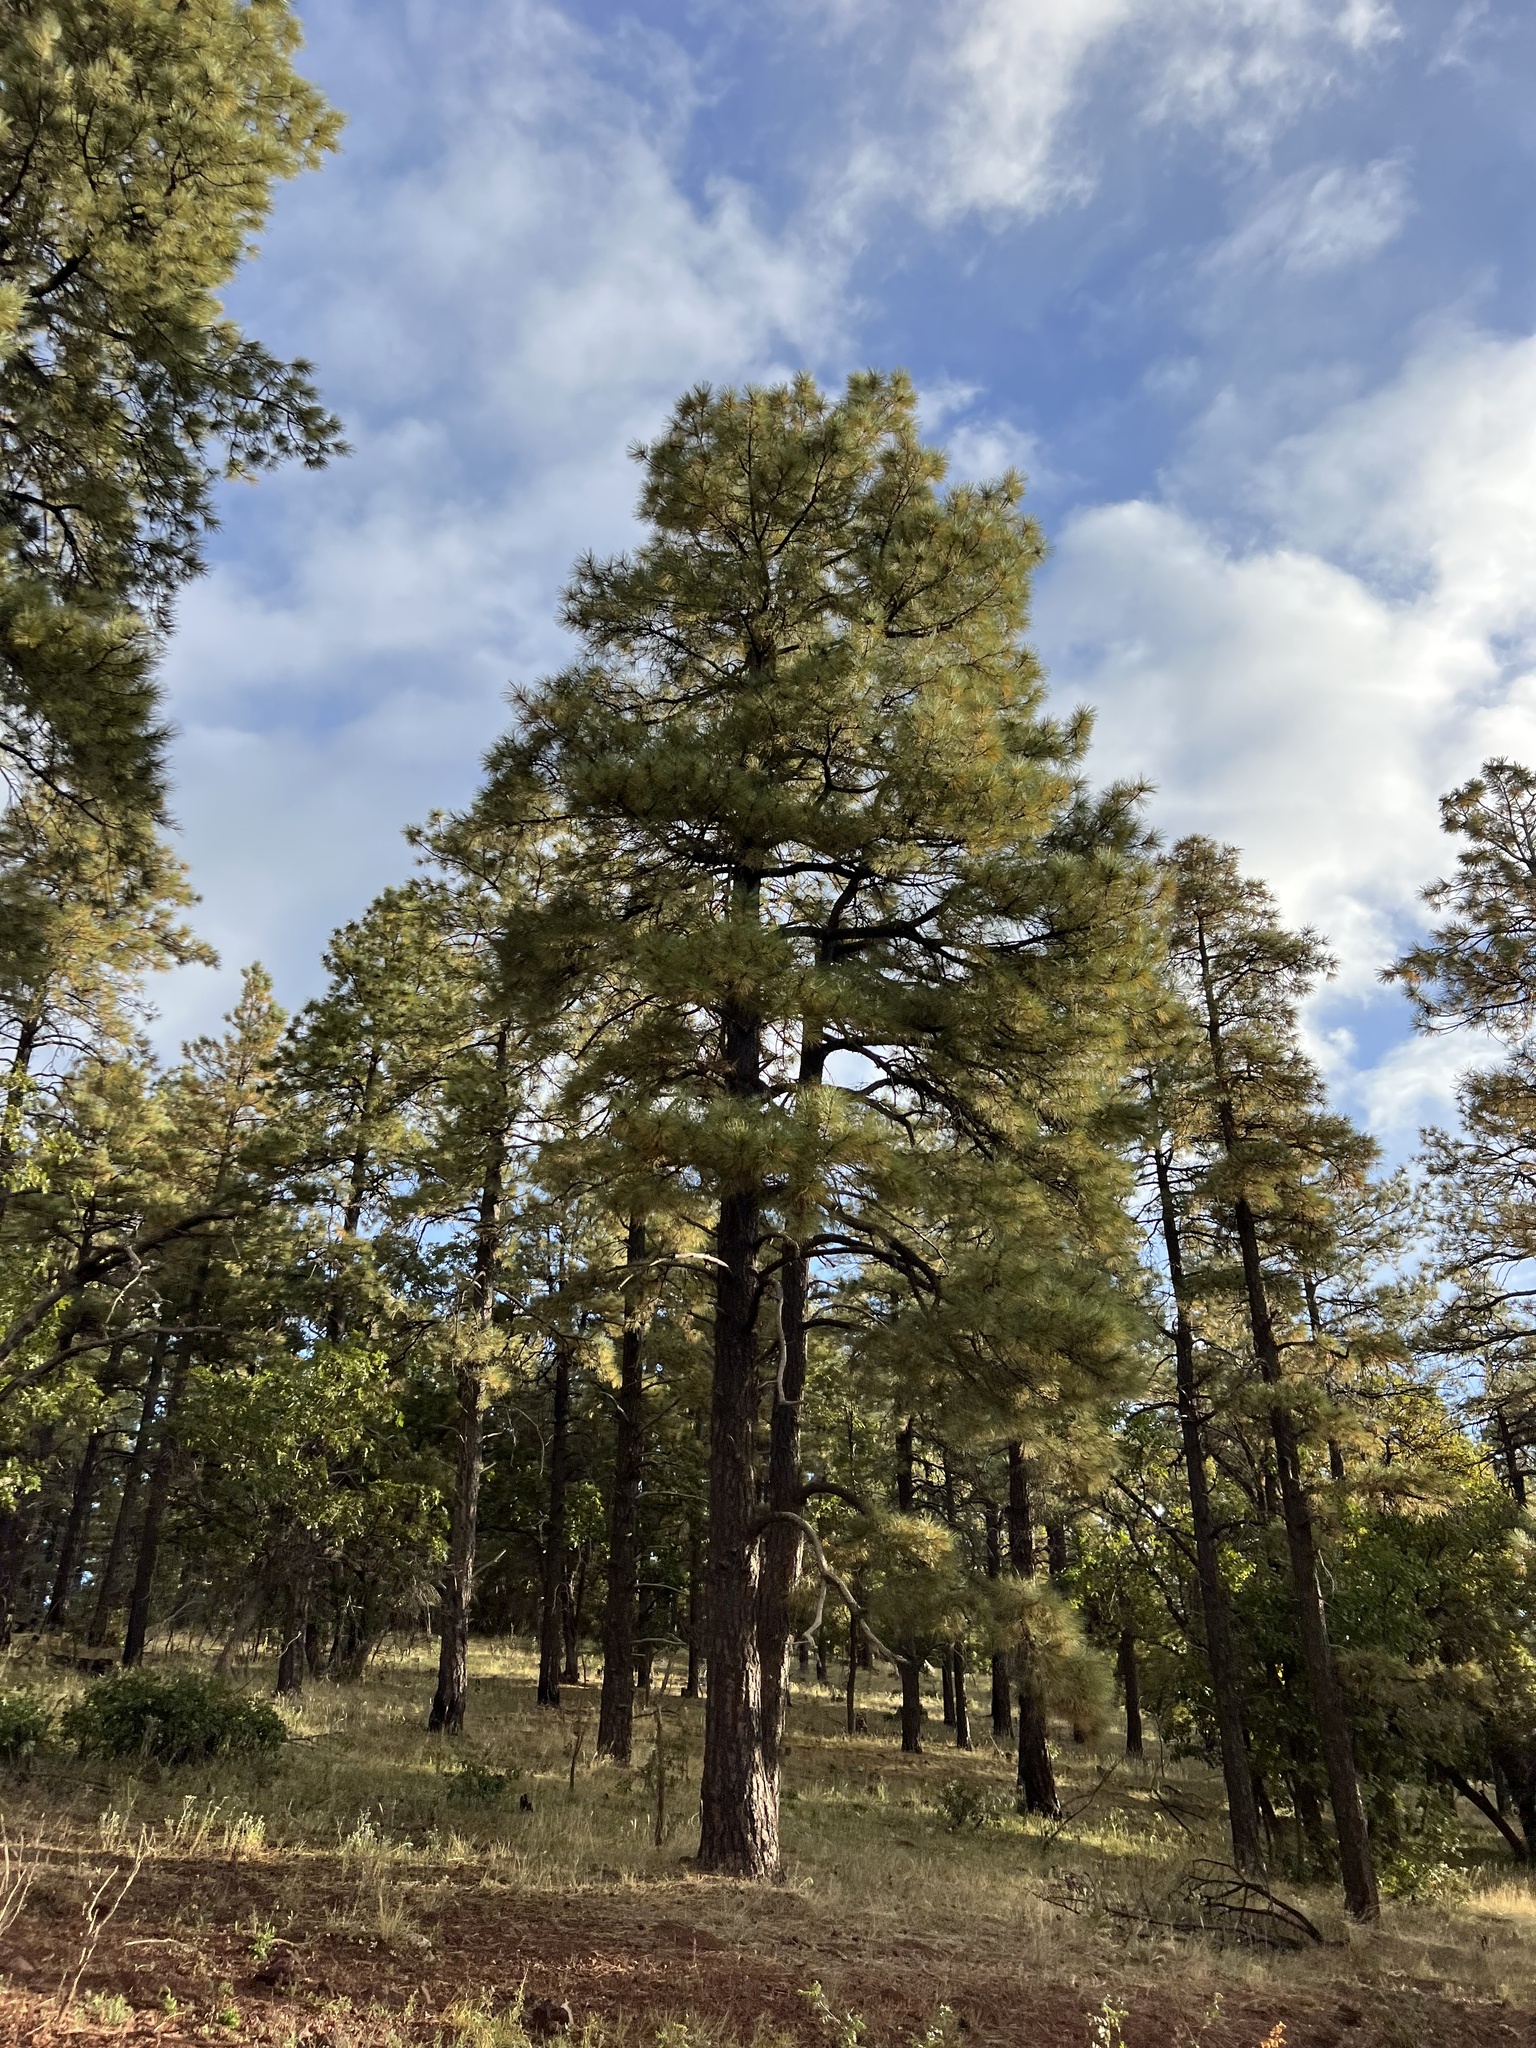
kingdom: Plantae
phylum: Tracheophyta
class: Pinopsida
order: Pinales
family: Pinaceae
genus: Pinus
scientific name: Pinus ponderosa
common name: Western yellow-pine
